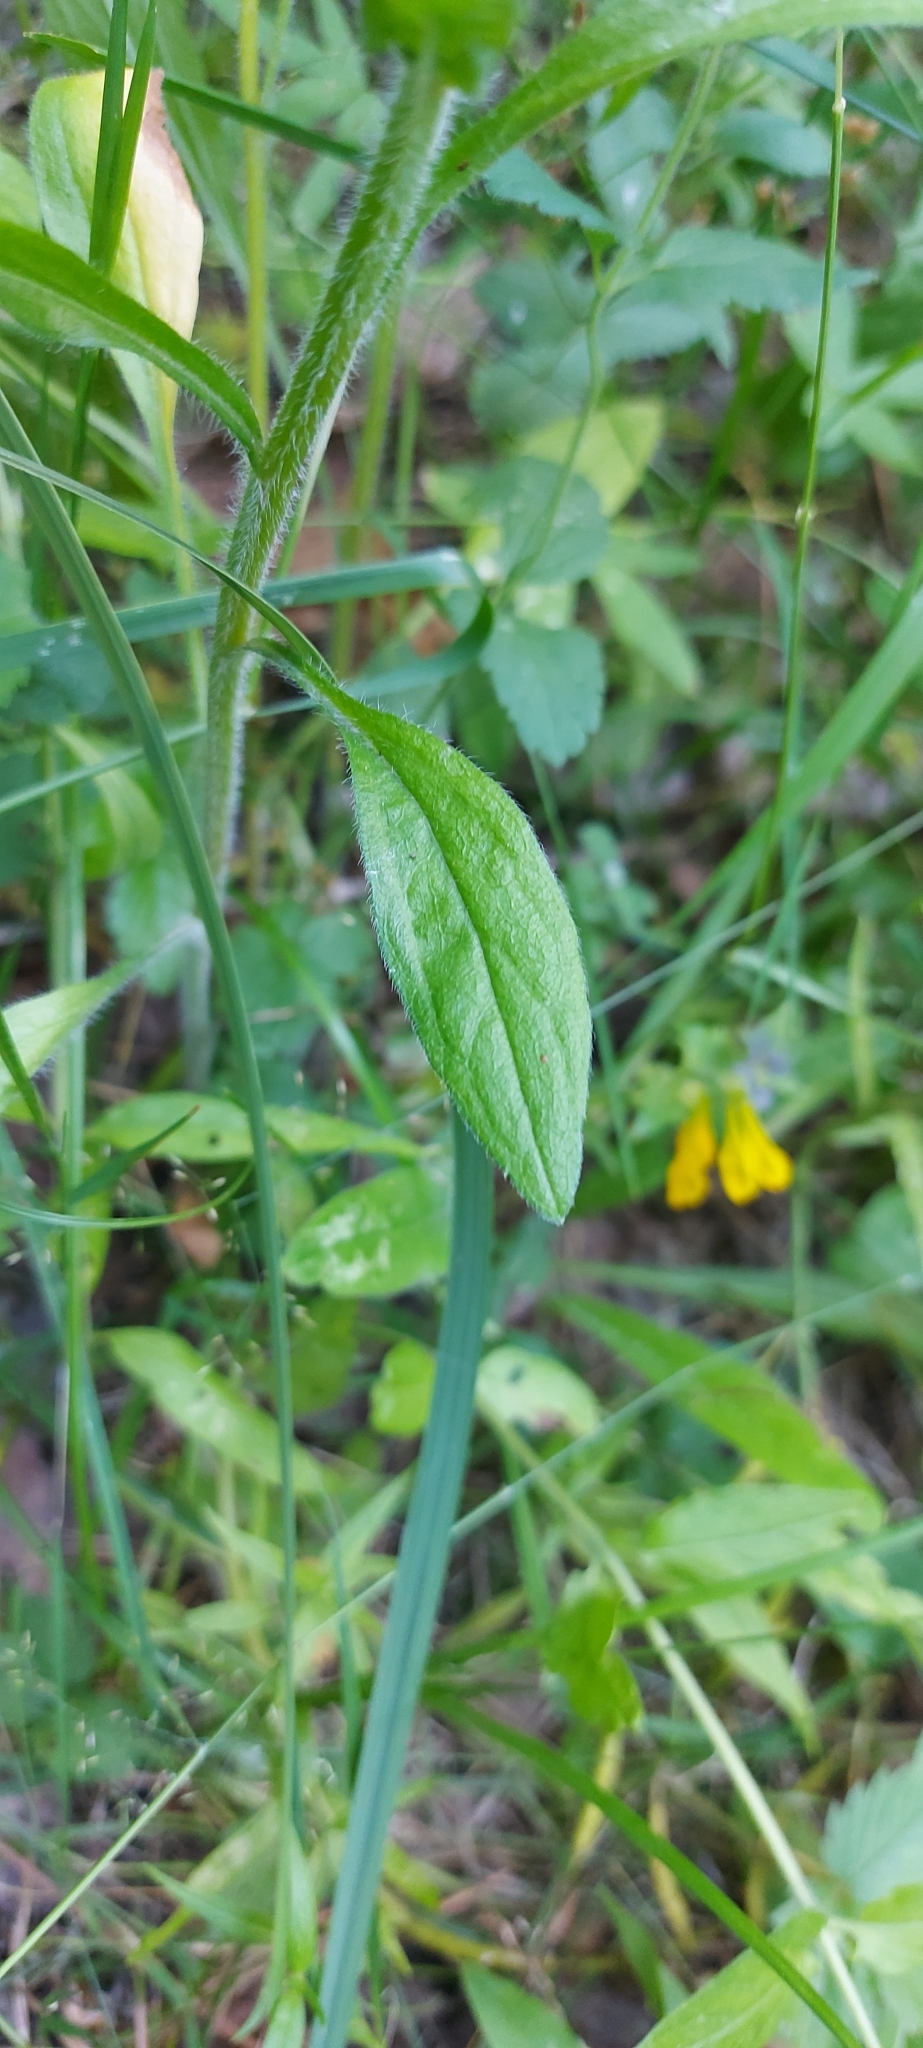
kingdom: Plantae
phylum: Tracheophyta
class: Magnoliopsida
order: Asterales
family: Asteraceae
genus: Erigeron
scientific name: Erigeron annuus
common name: Tall fleabane
